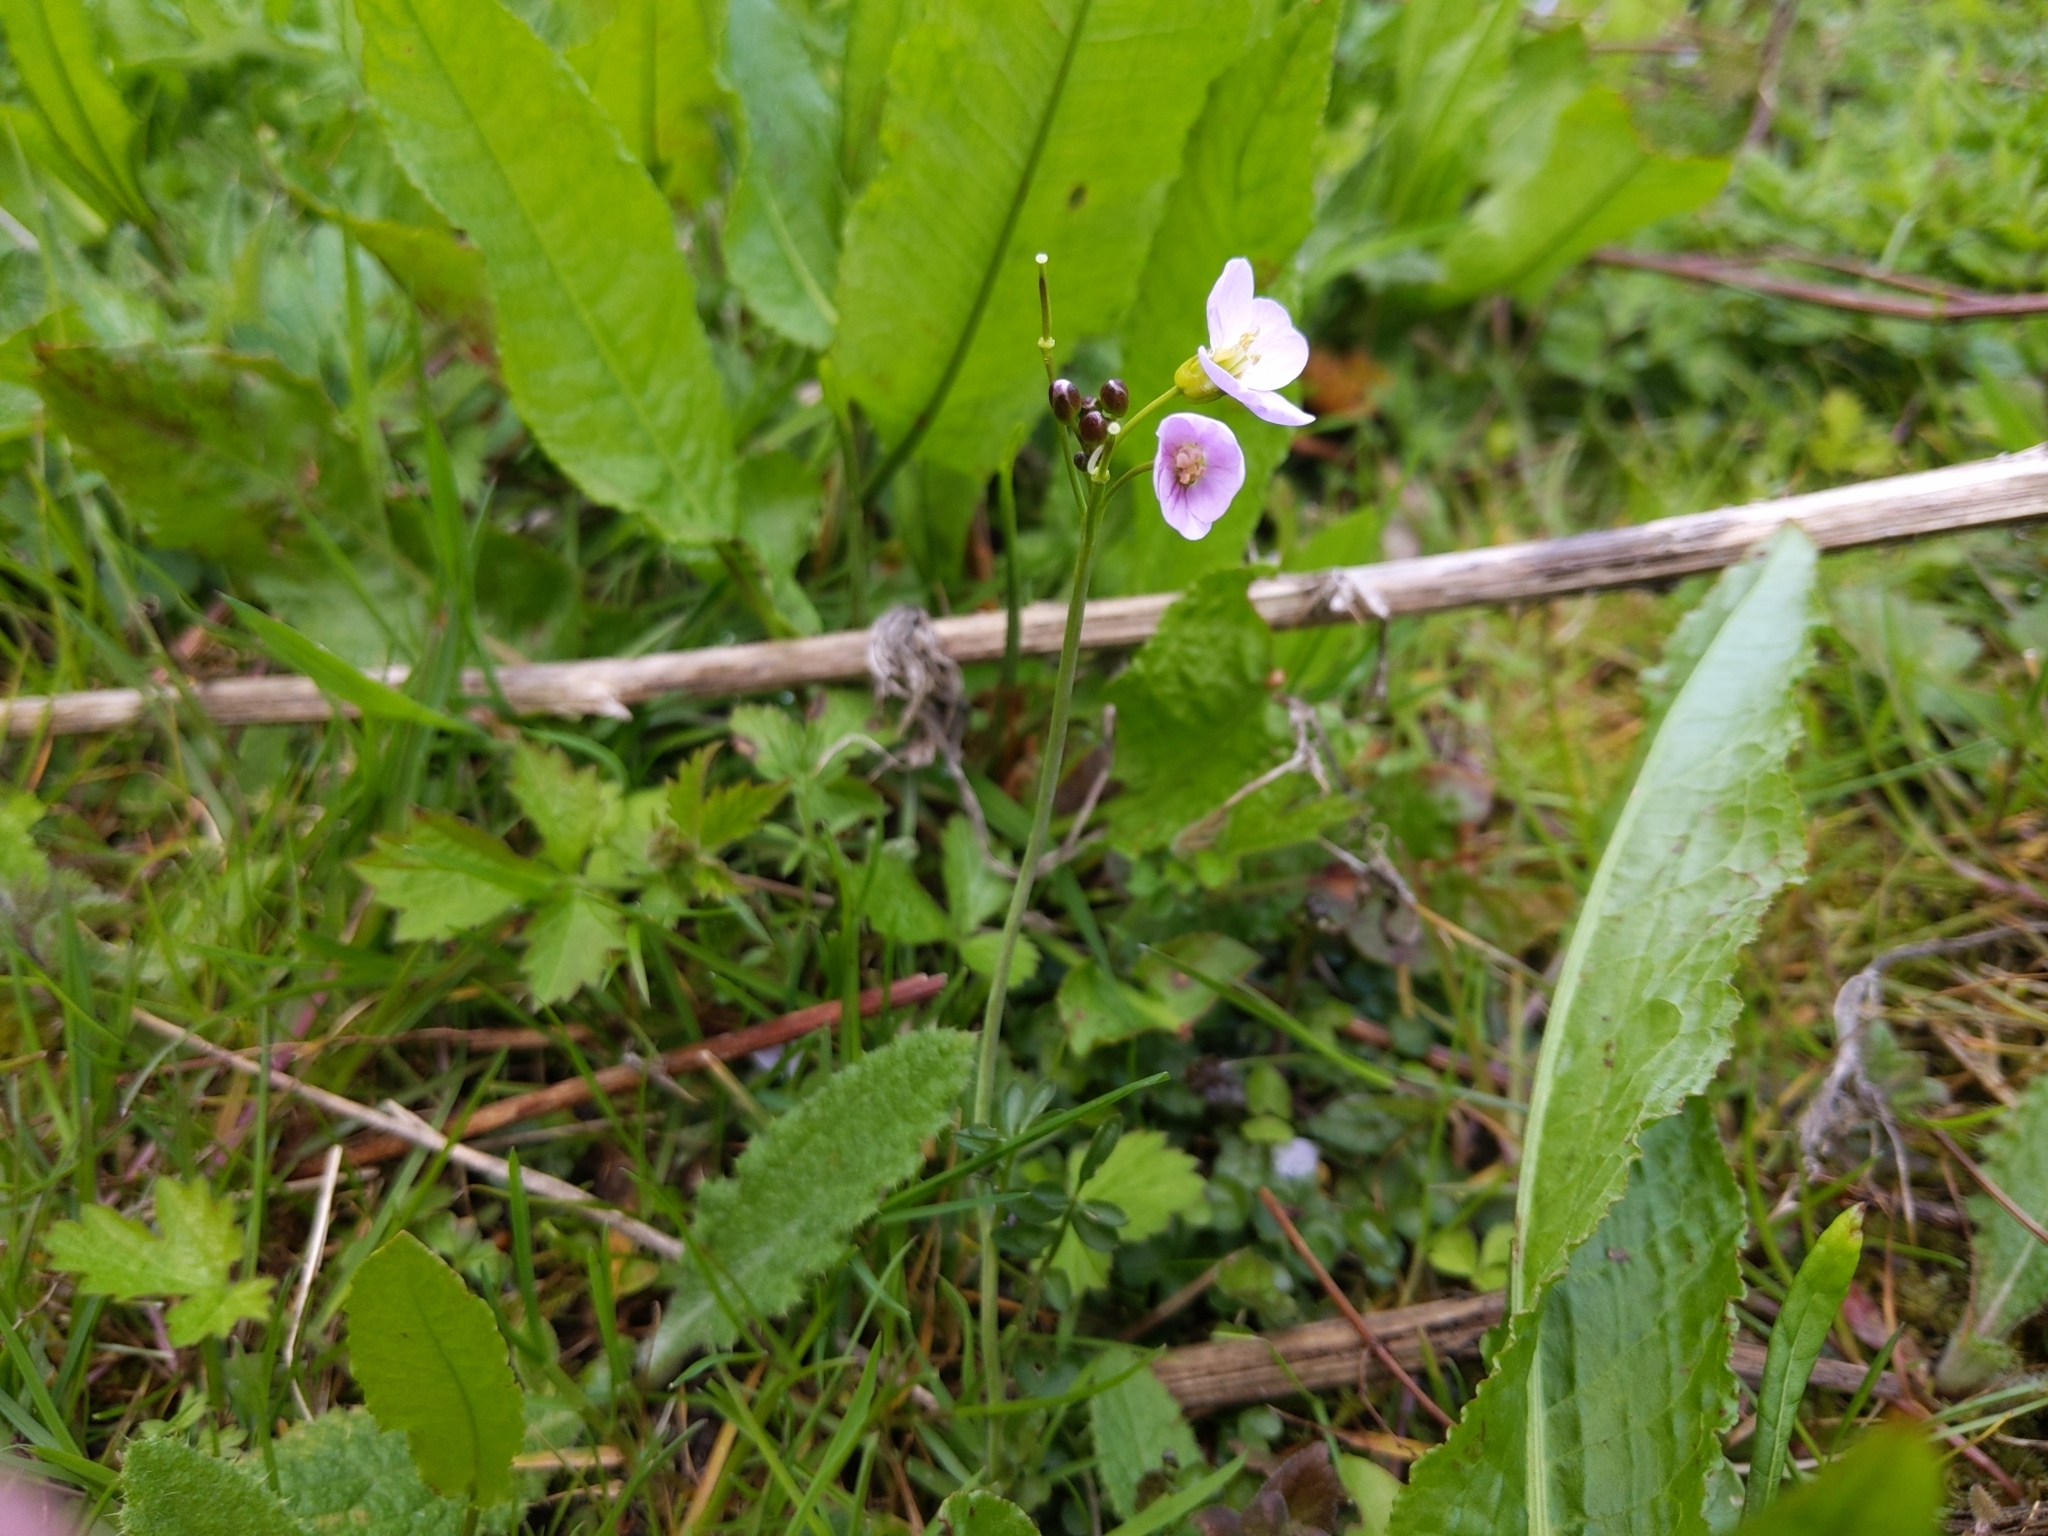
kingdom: Plantae
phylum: Tracheophyta
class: Magnoliopsida
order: Brassicales
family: Brassicaceae
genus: Cardamine
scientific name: Cardamine pratensis
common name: Cuckoo flower
